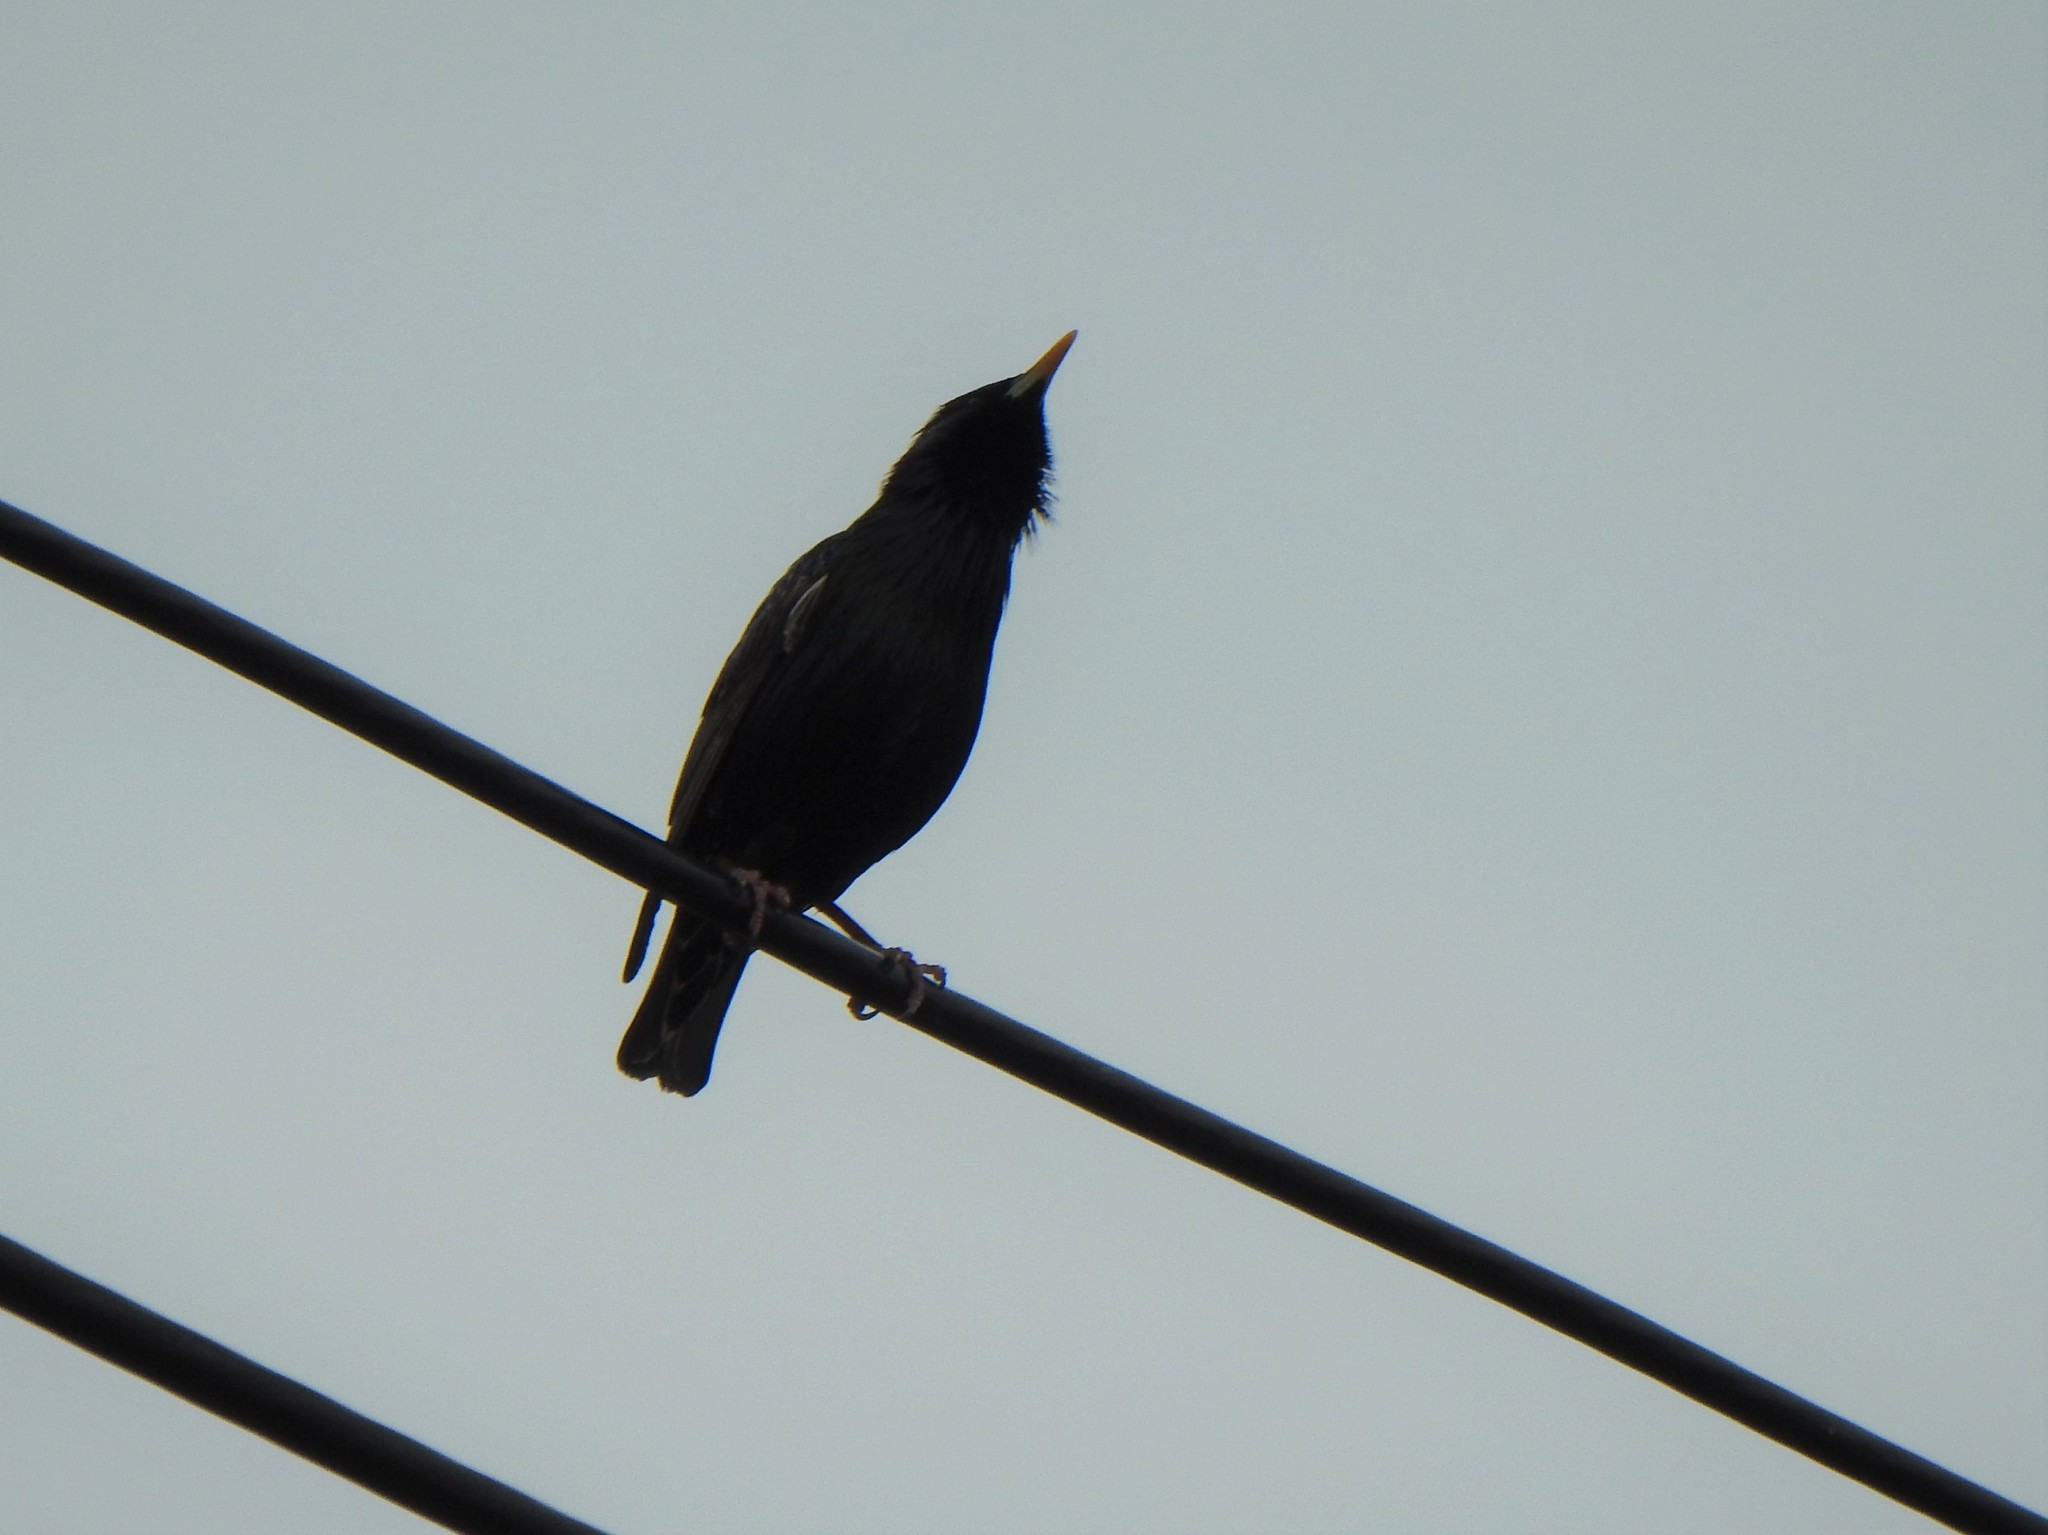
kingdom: Animalia
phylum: Chordata
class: Aves
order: Passeriformes
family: Sturnidae
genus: Sturnus
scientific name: Sturnus vulgaris
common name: Common starling
